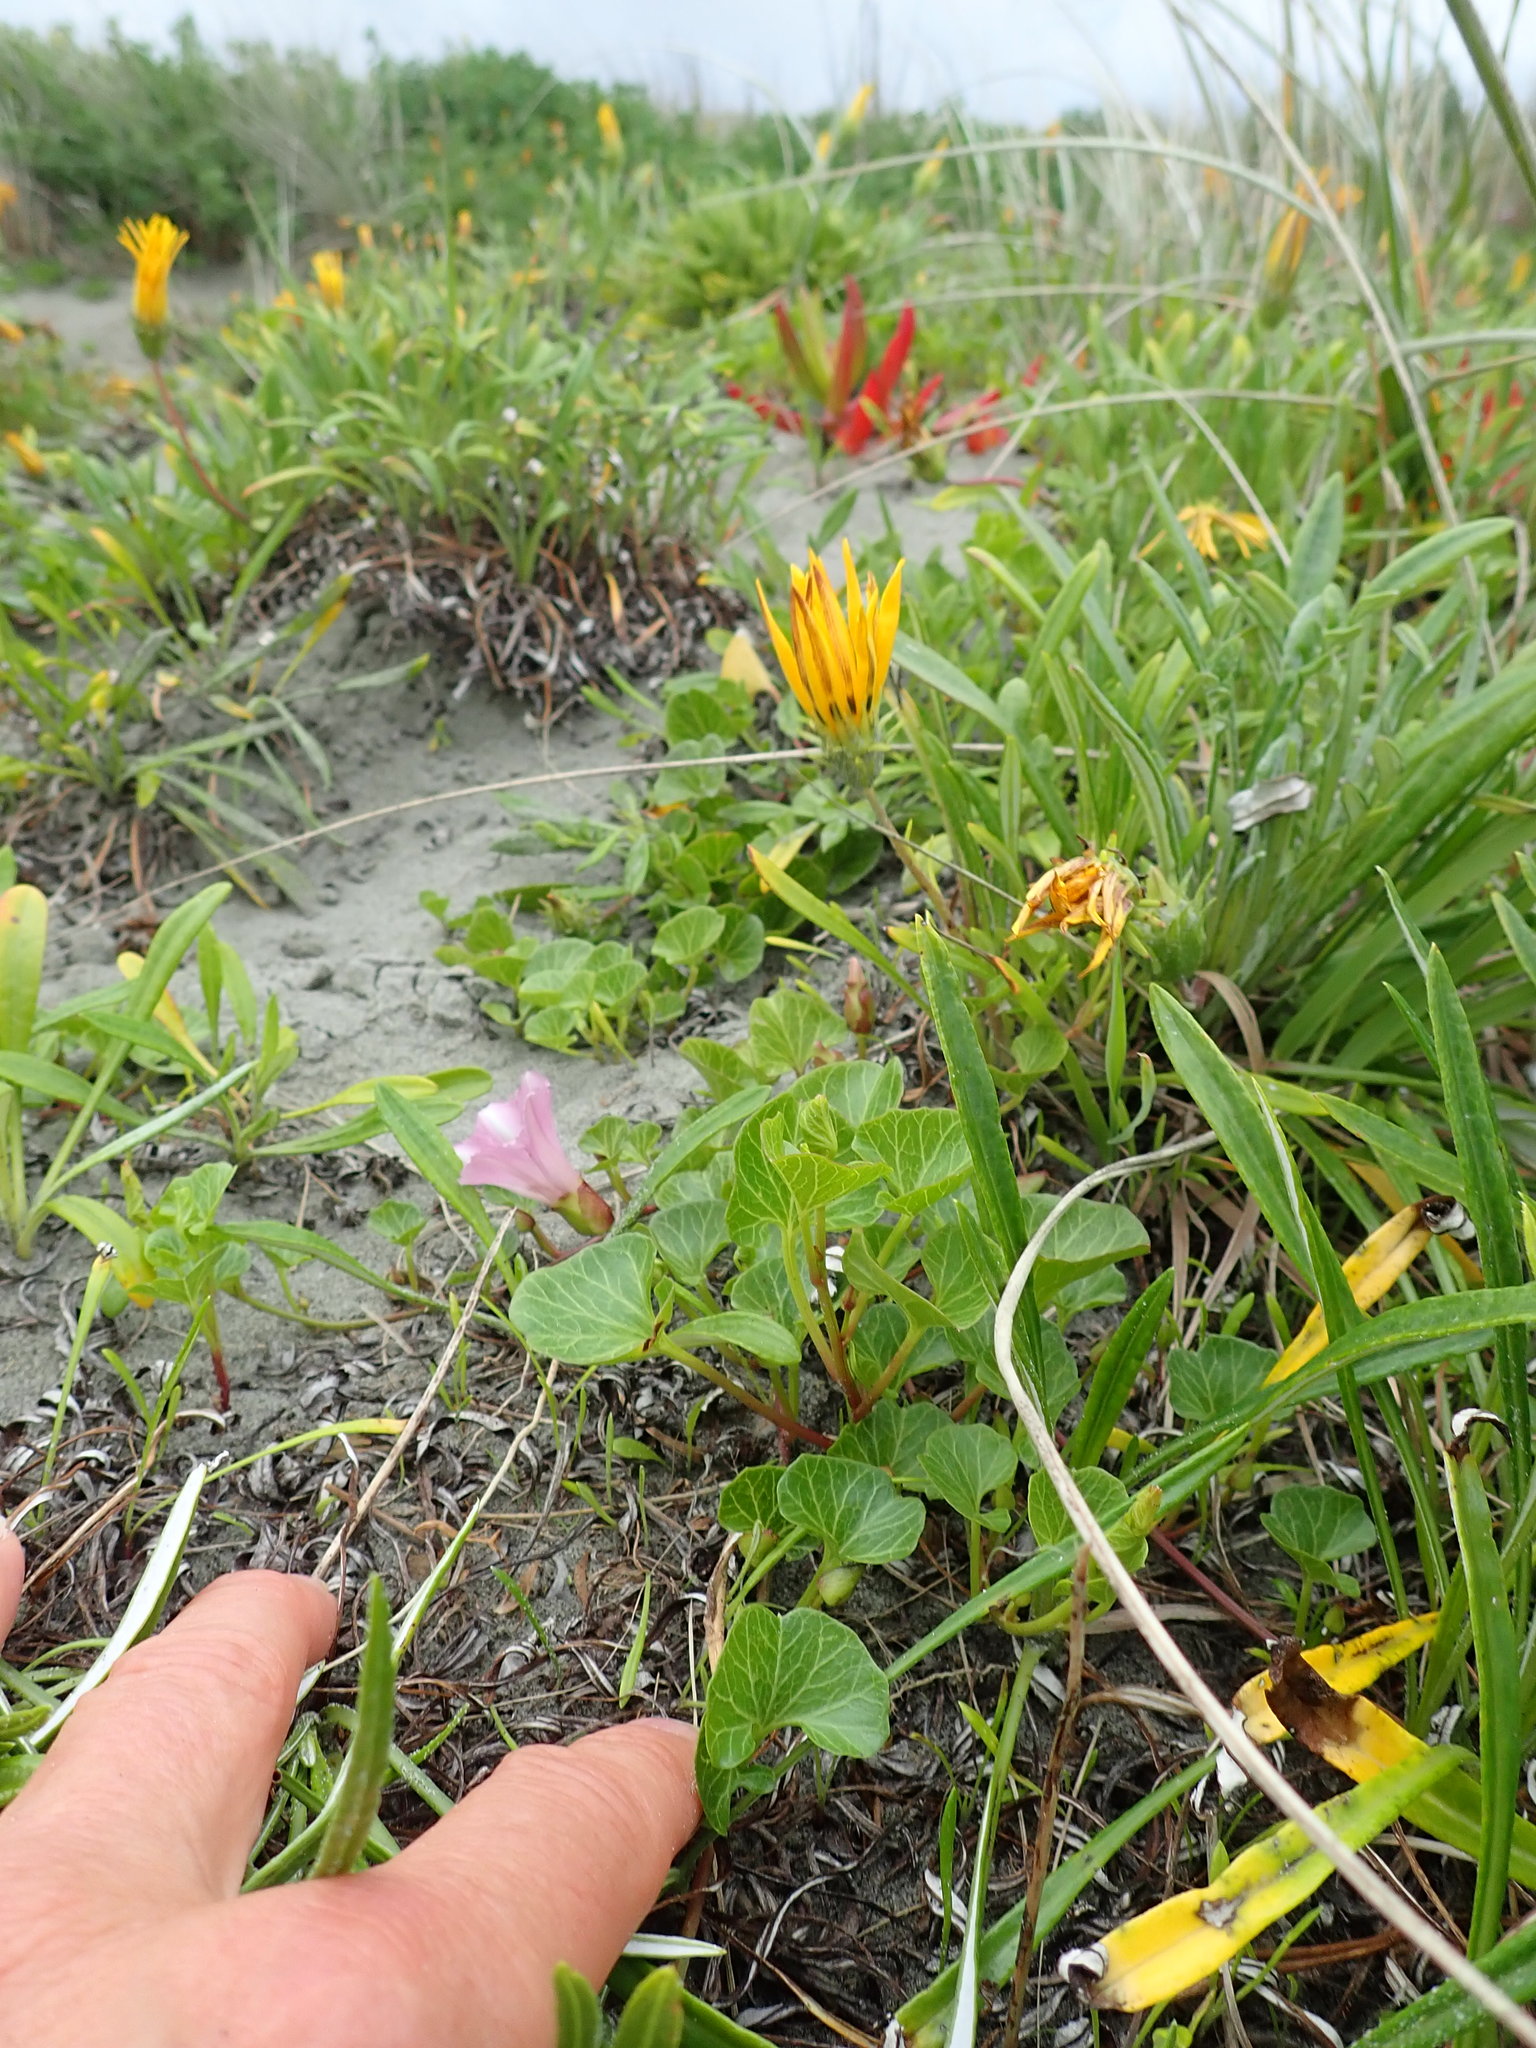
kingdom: Plantae
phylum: Tracheophyta
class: Magnoliopsida
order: Solanales
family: Convolvulaceae
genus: Calystegia
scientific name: Calystegia soldanella
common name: Sea bindweed
